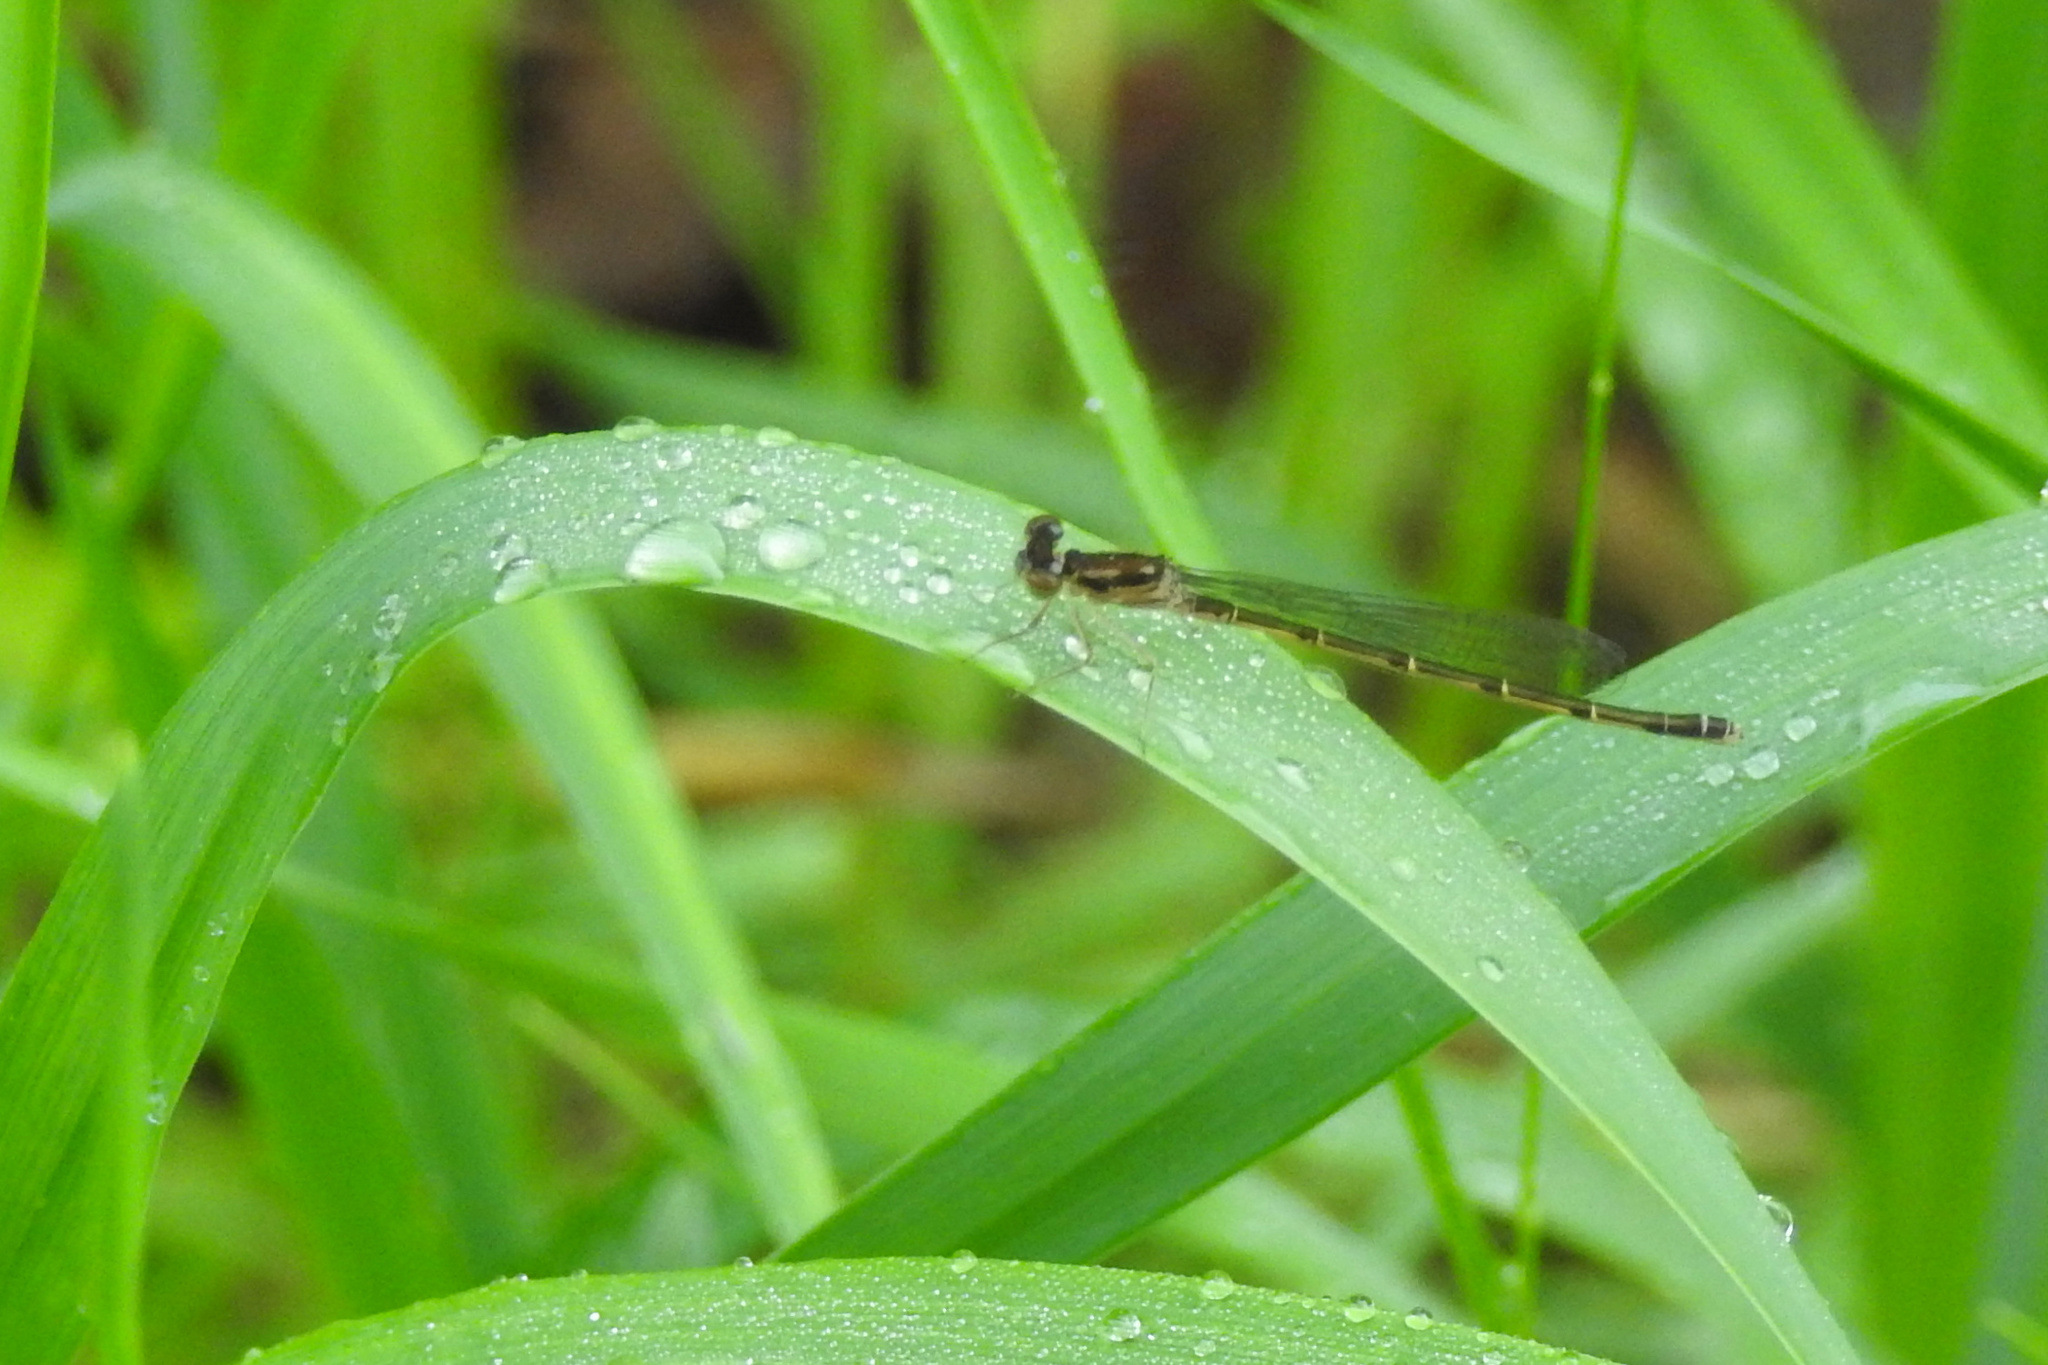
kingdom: Animalia
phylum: Arthropoda
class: Insecta
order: Odonata
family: Coenagrionidae
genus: Ischnura
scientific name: Ischnura posita
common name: Fragile forktail
